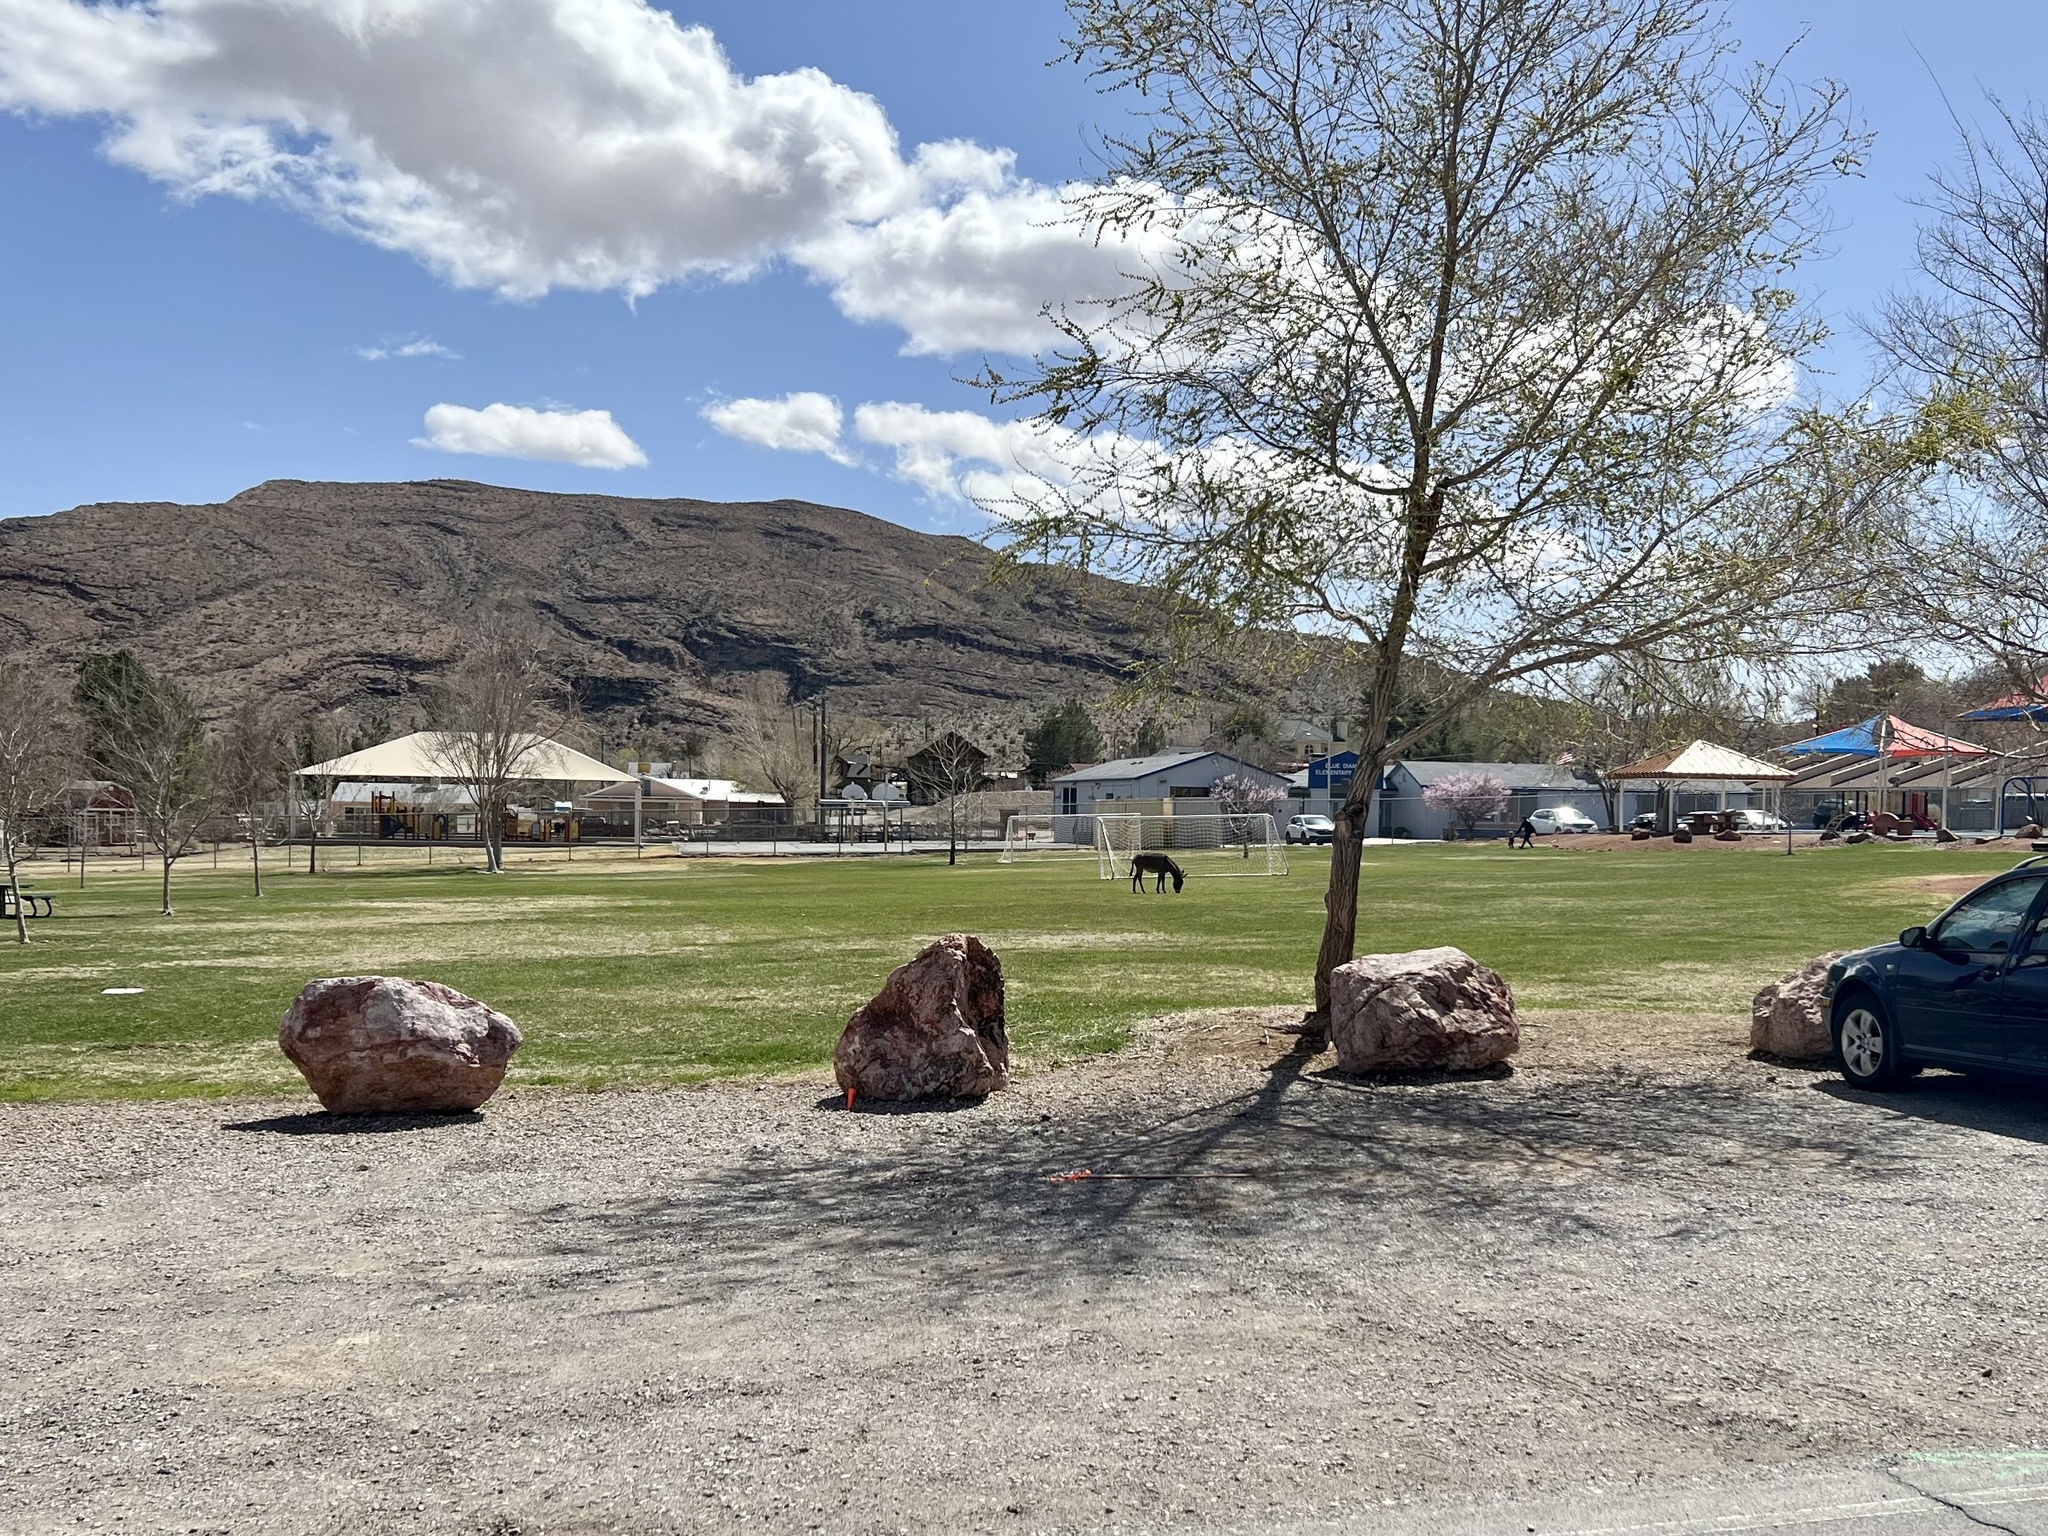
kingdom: Animalia
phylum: Chordata
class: Mammalia
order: Perissodactyla
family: Equidae
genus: Equus
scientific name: Equus asinus
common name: Ass
